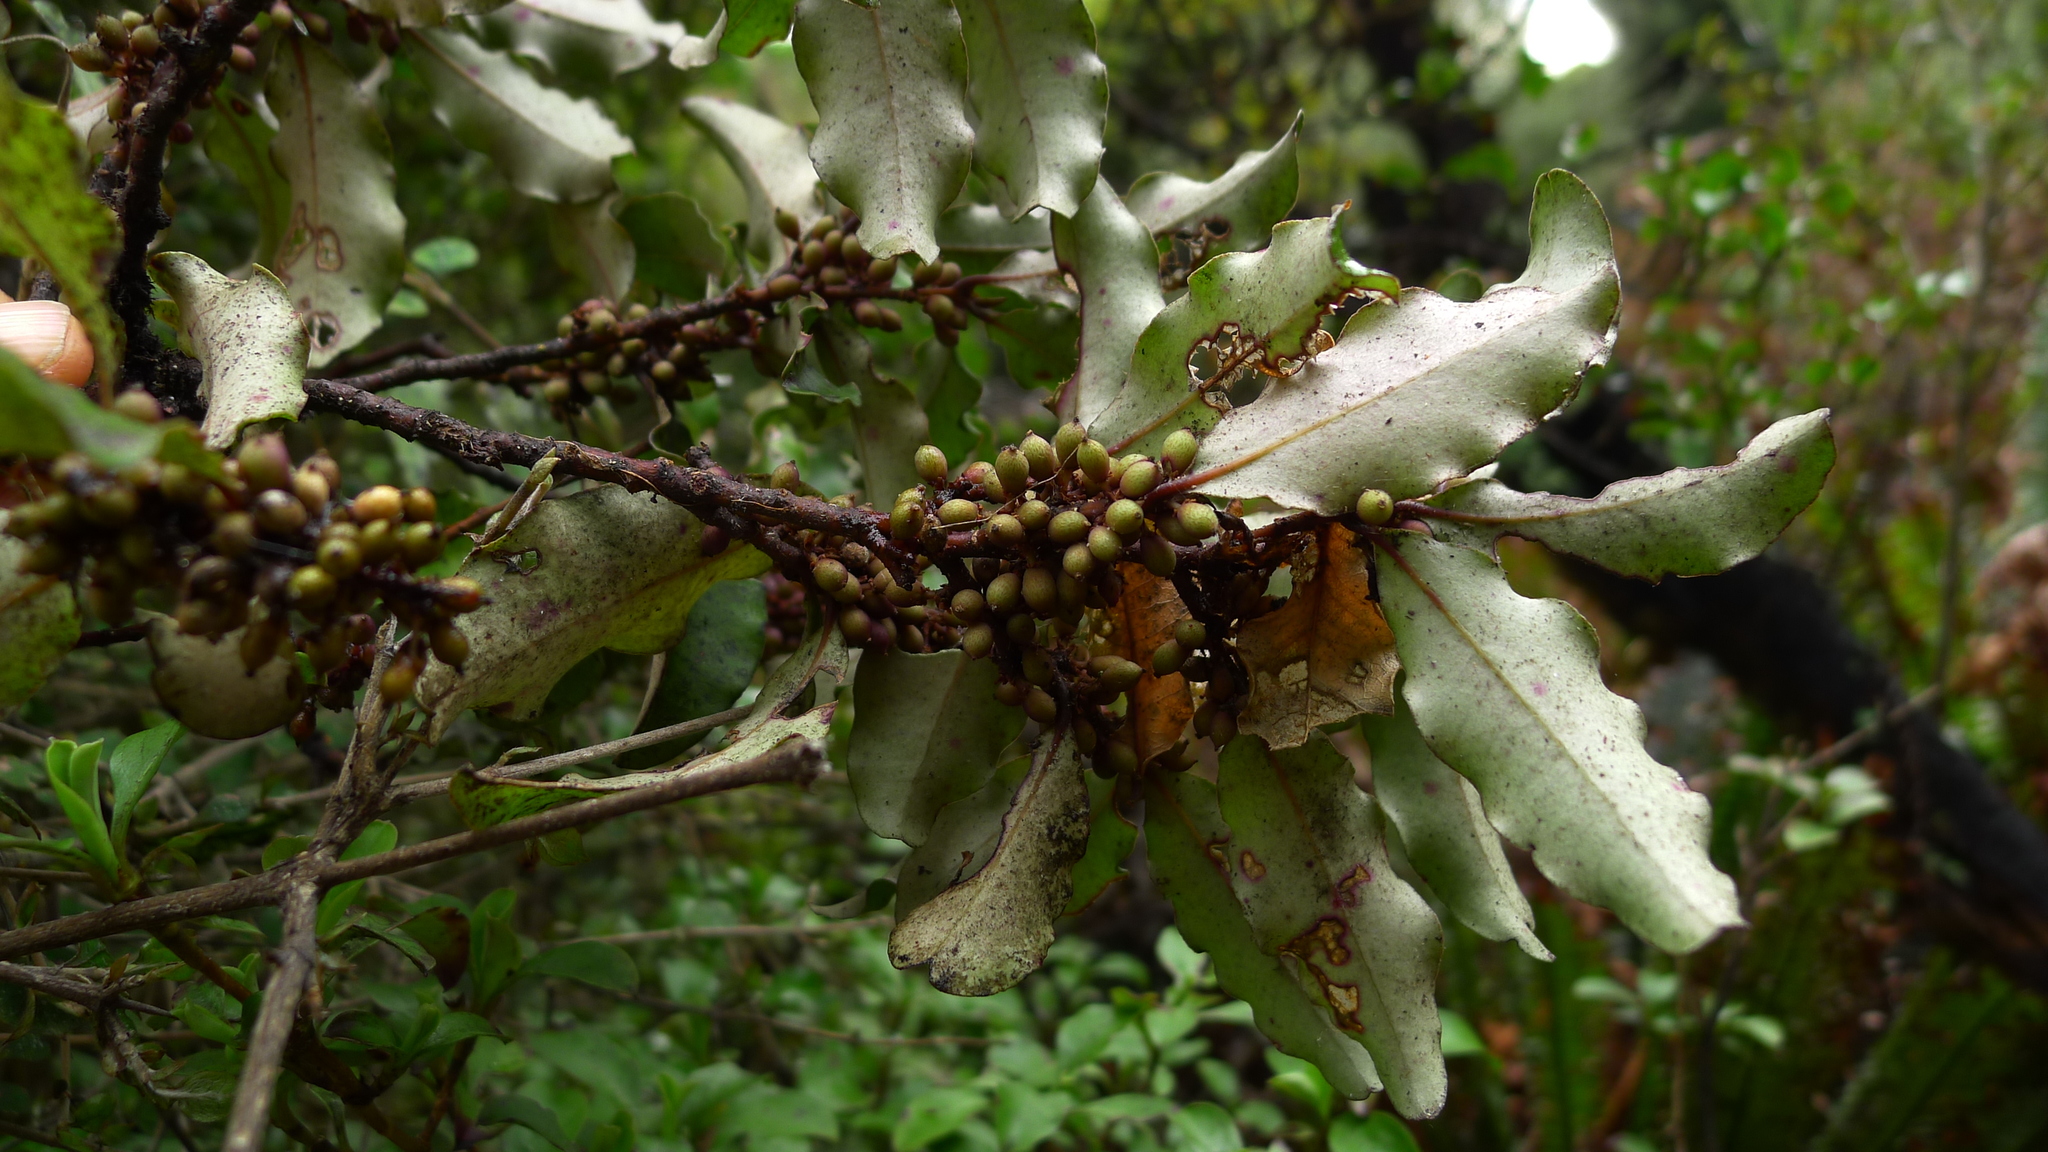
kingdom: Plantae
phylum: Tracheophyta
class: Magnoliopsida
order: Ericales
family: Primulaceae
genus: Myrsine
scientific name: Myrsine australis
